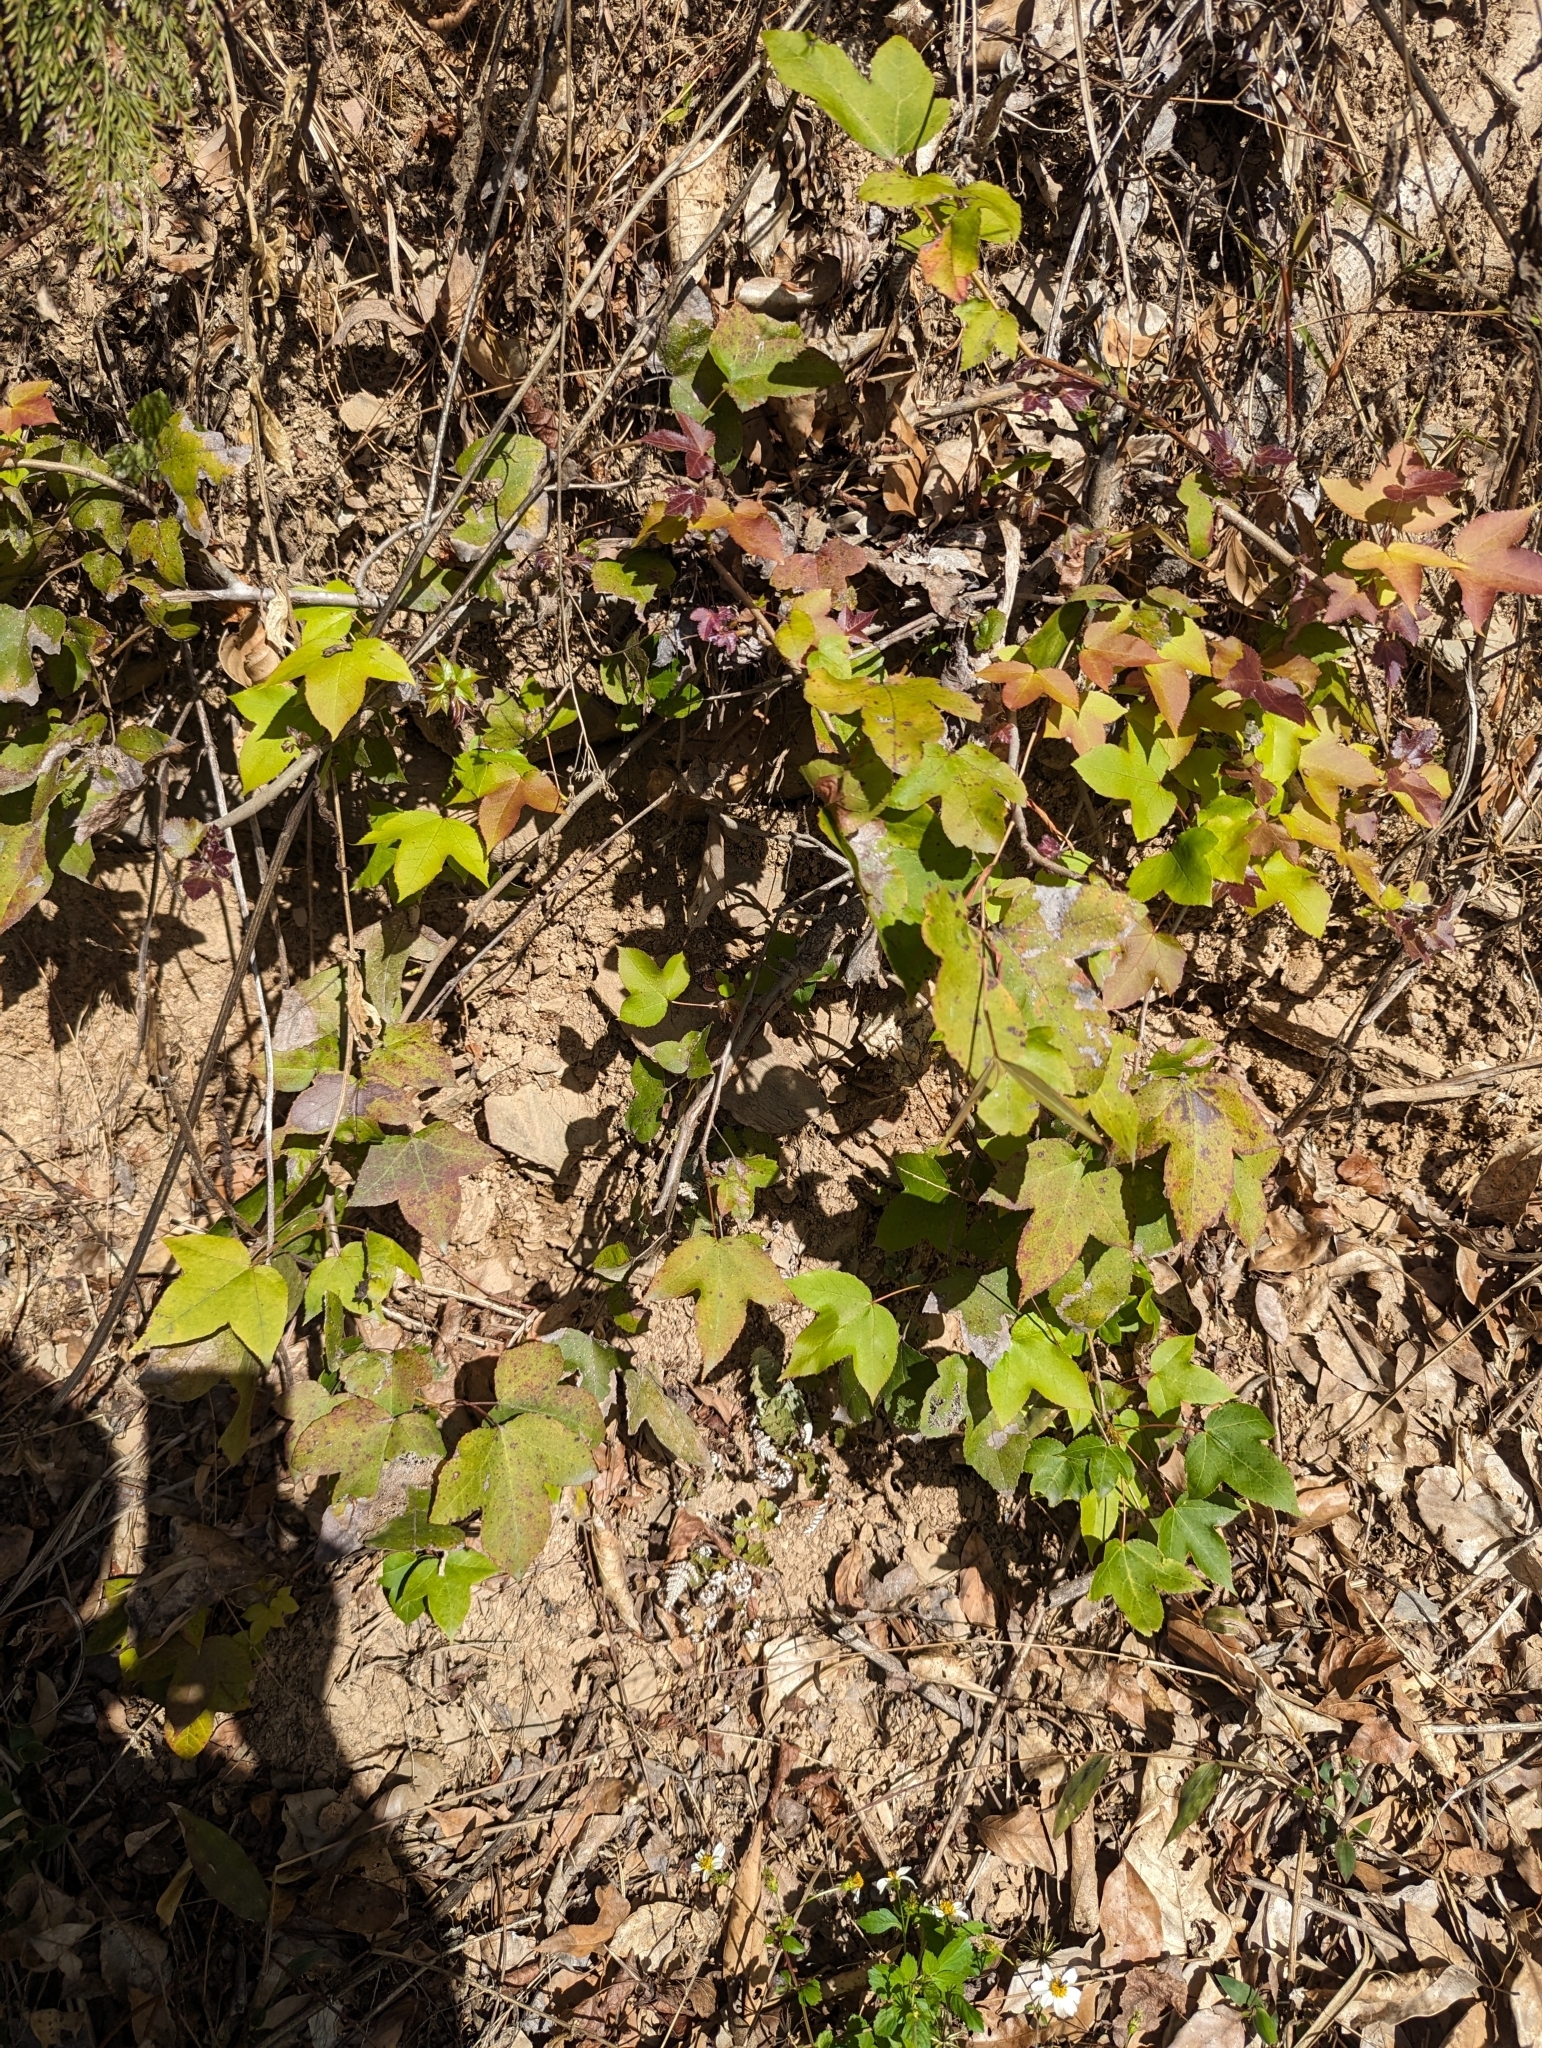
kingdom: Plantae
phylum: Tracheophyta
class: Magnoliopsida
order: Saxifragales
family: Altingiaceae
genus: Liquidambar
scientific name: Liquidambar formosana
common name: Chinese sweet gum
